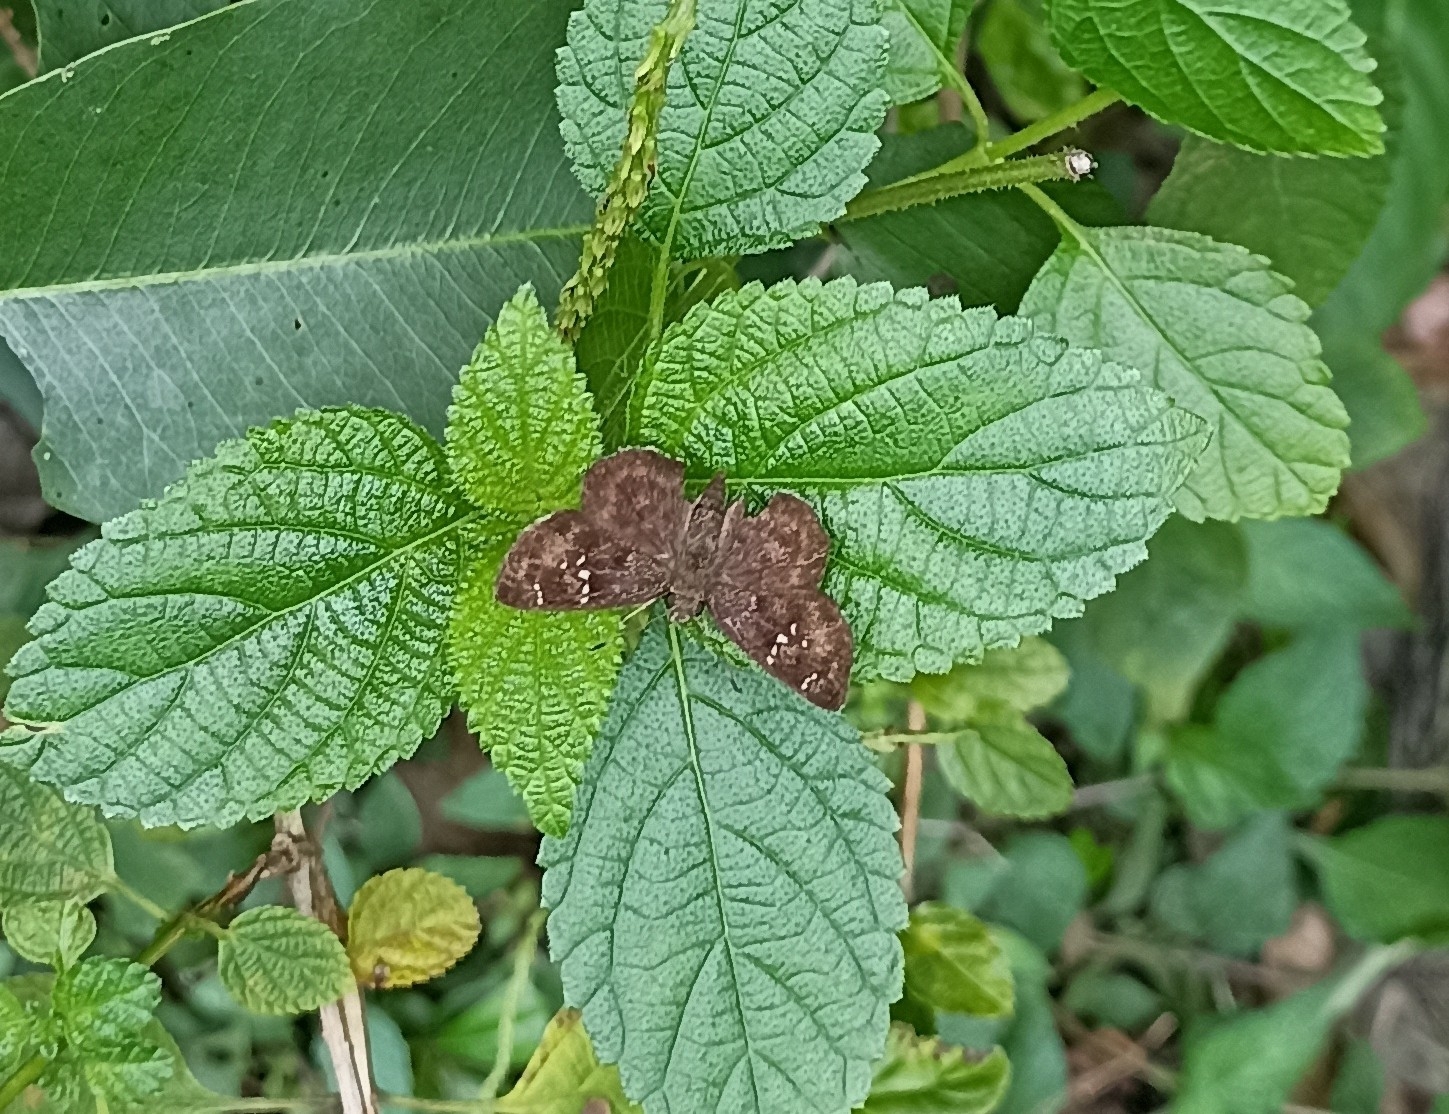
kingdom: Animalia
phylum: Arthropoda
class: Insecta
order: Lepidoptera
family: Hesperiidae
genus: Sarangesa
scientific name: Sarangesa dasahara
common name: Common small flat
